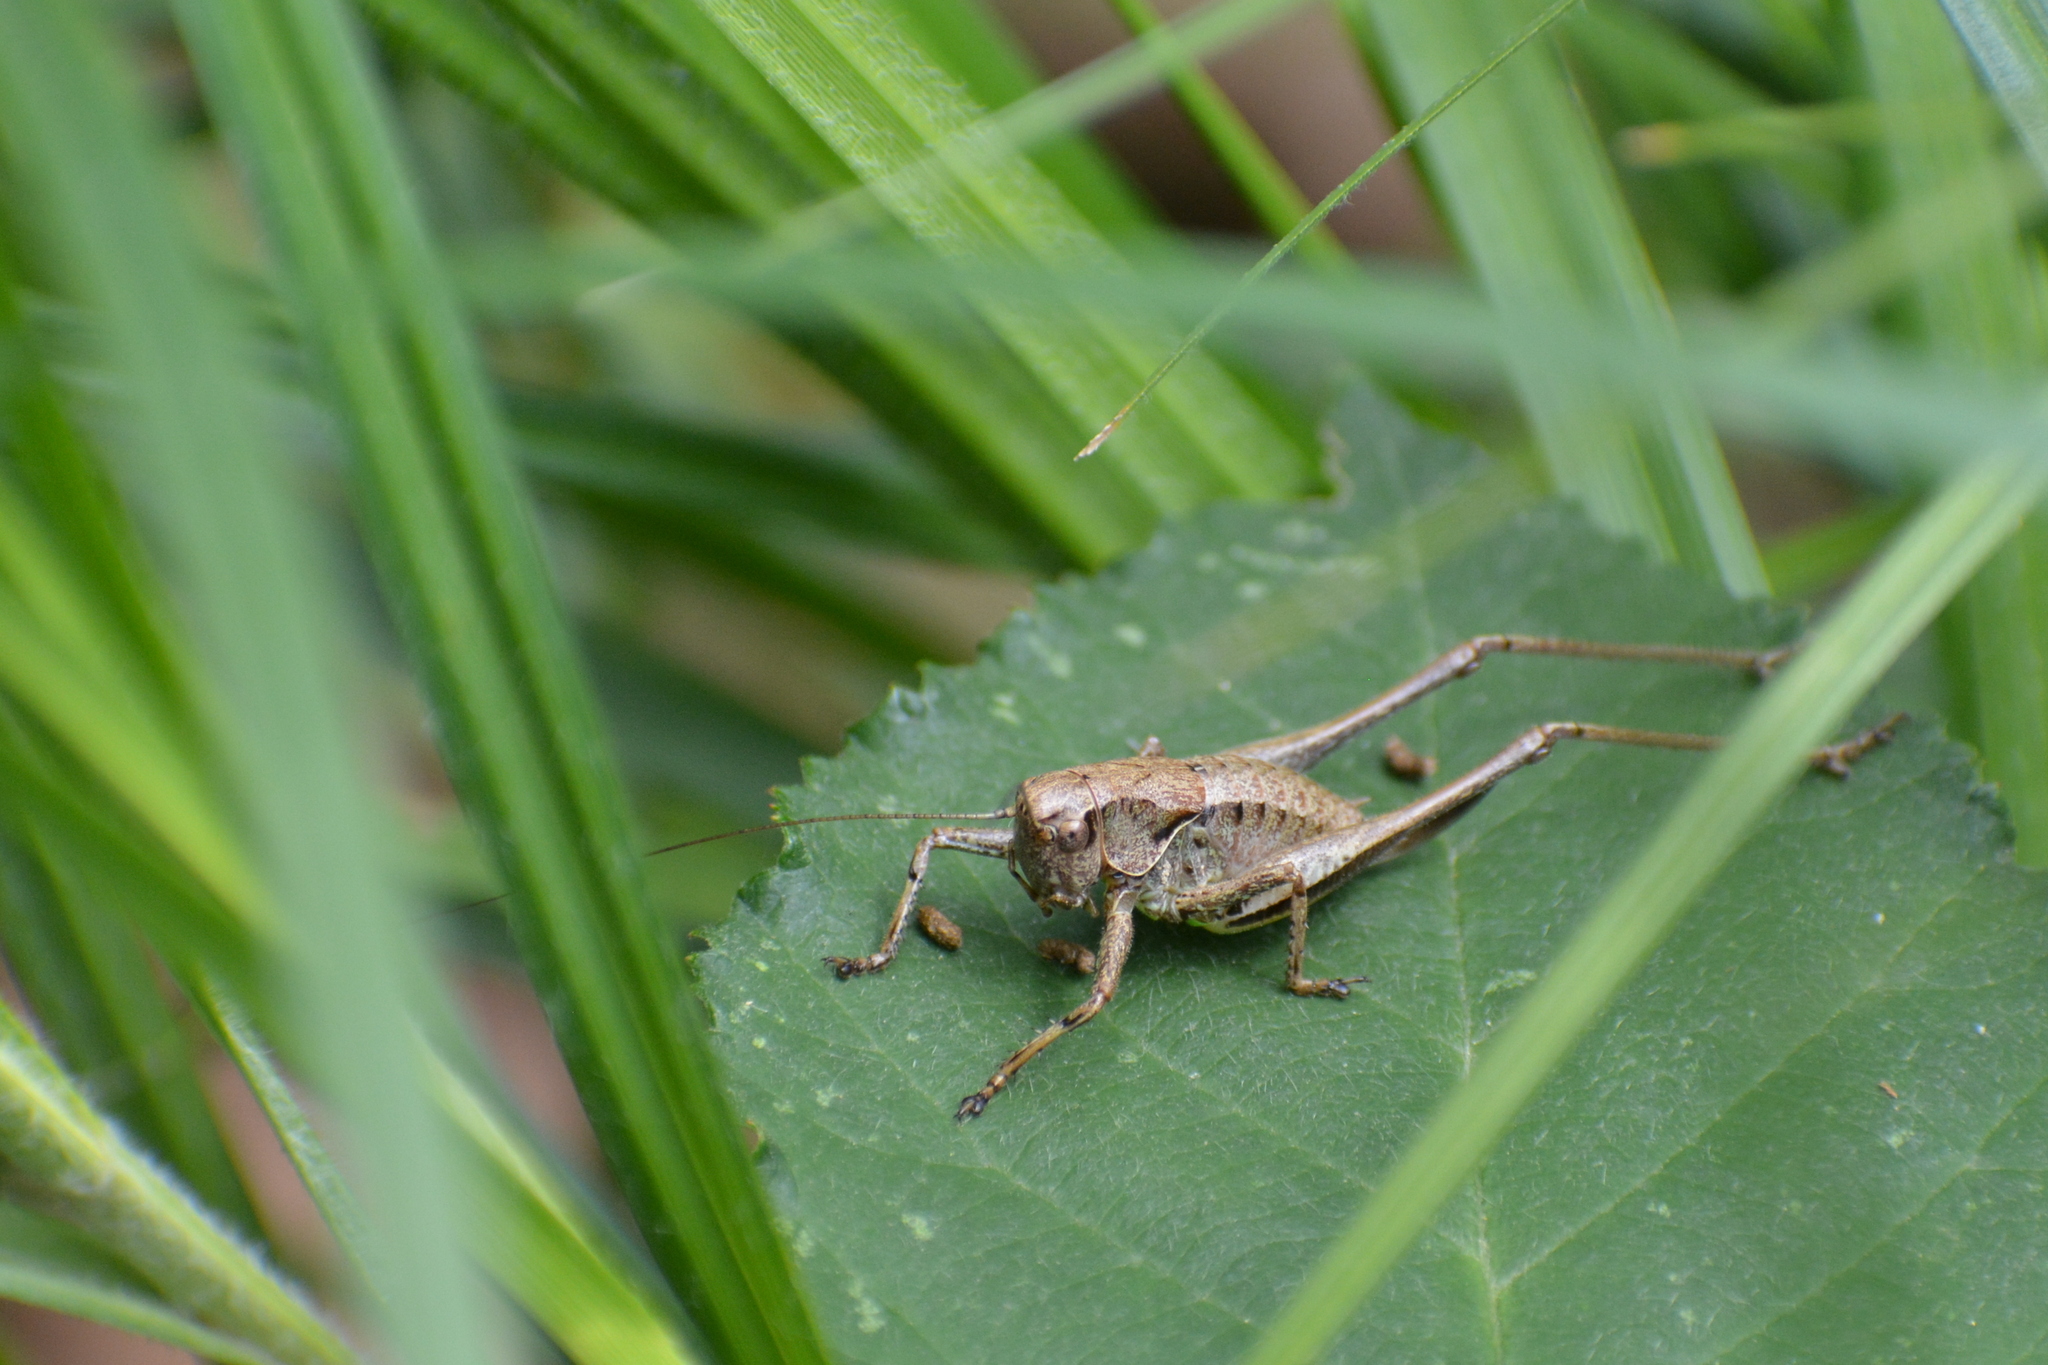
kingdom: Animalia
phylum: Arthropoda
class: Insecta
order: Orthoptera
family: Tettigoniidae
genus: Pholidoptera
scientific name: Pholidoptera griseoaptera
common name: Dark bush-cricket
